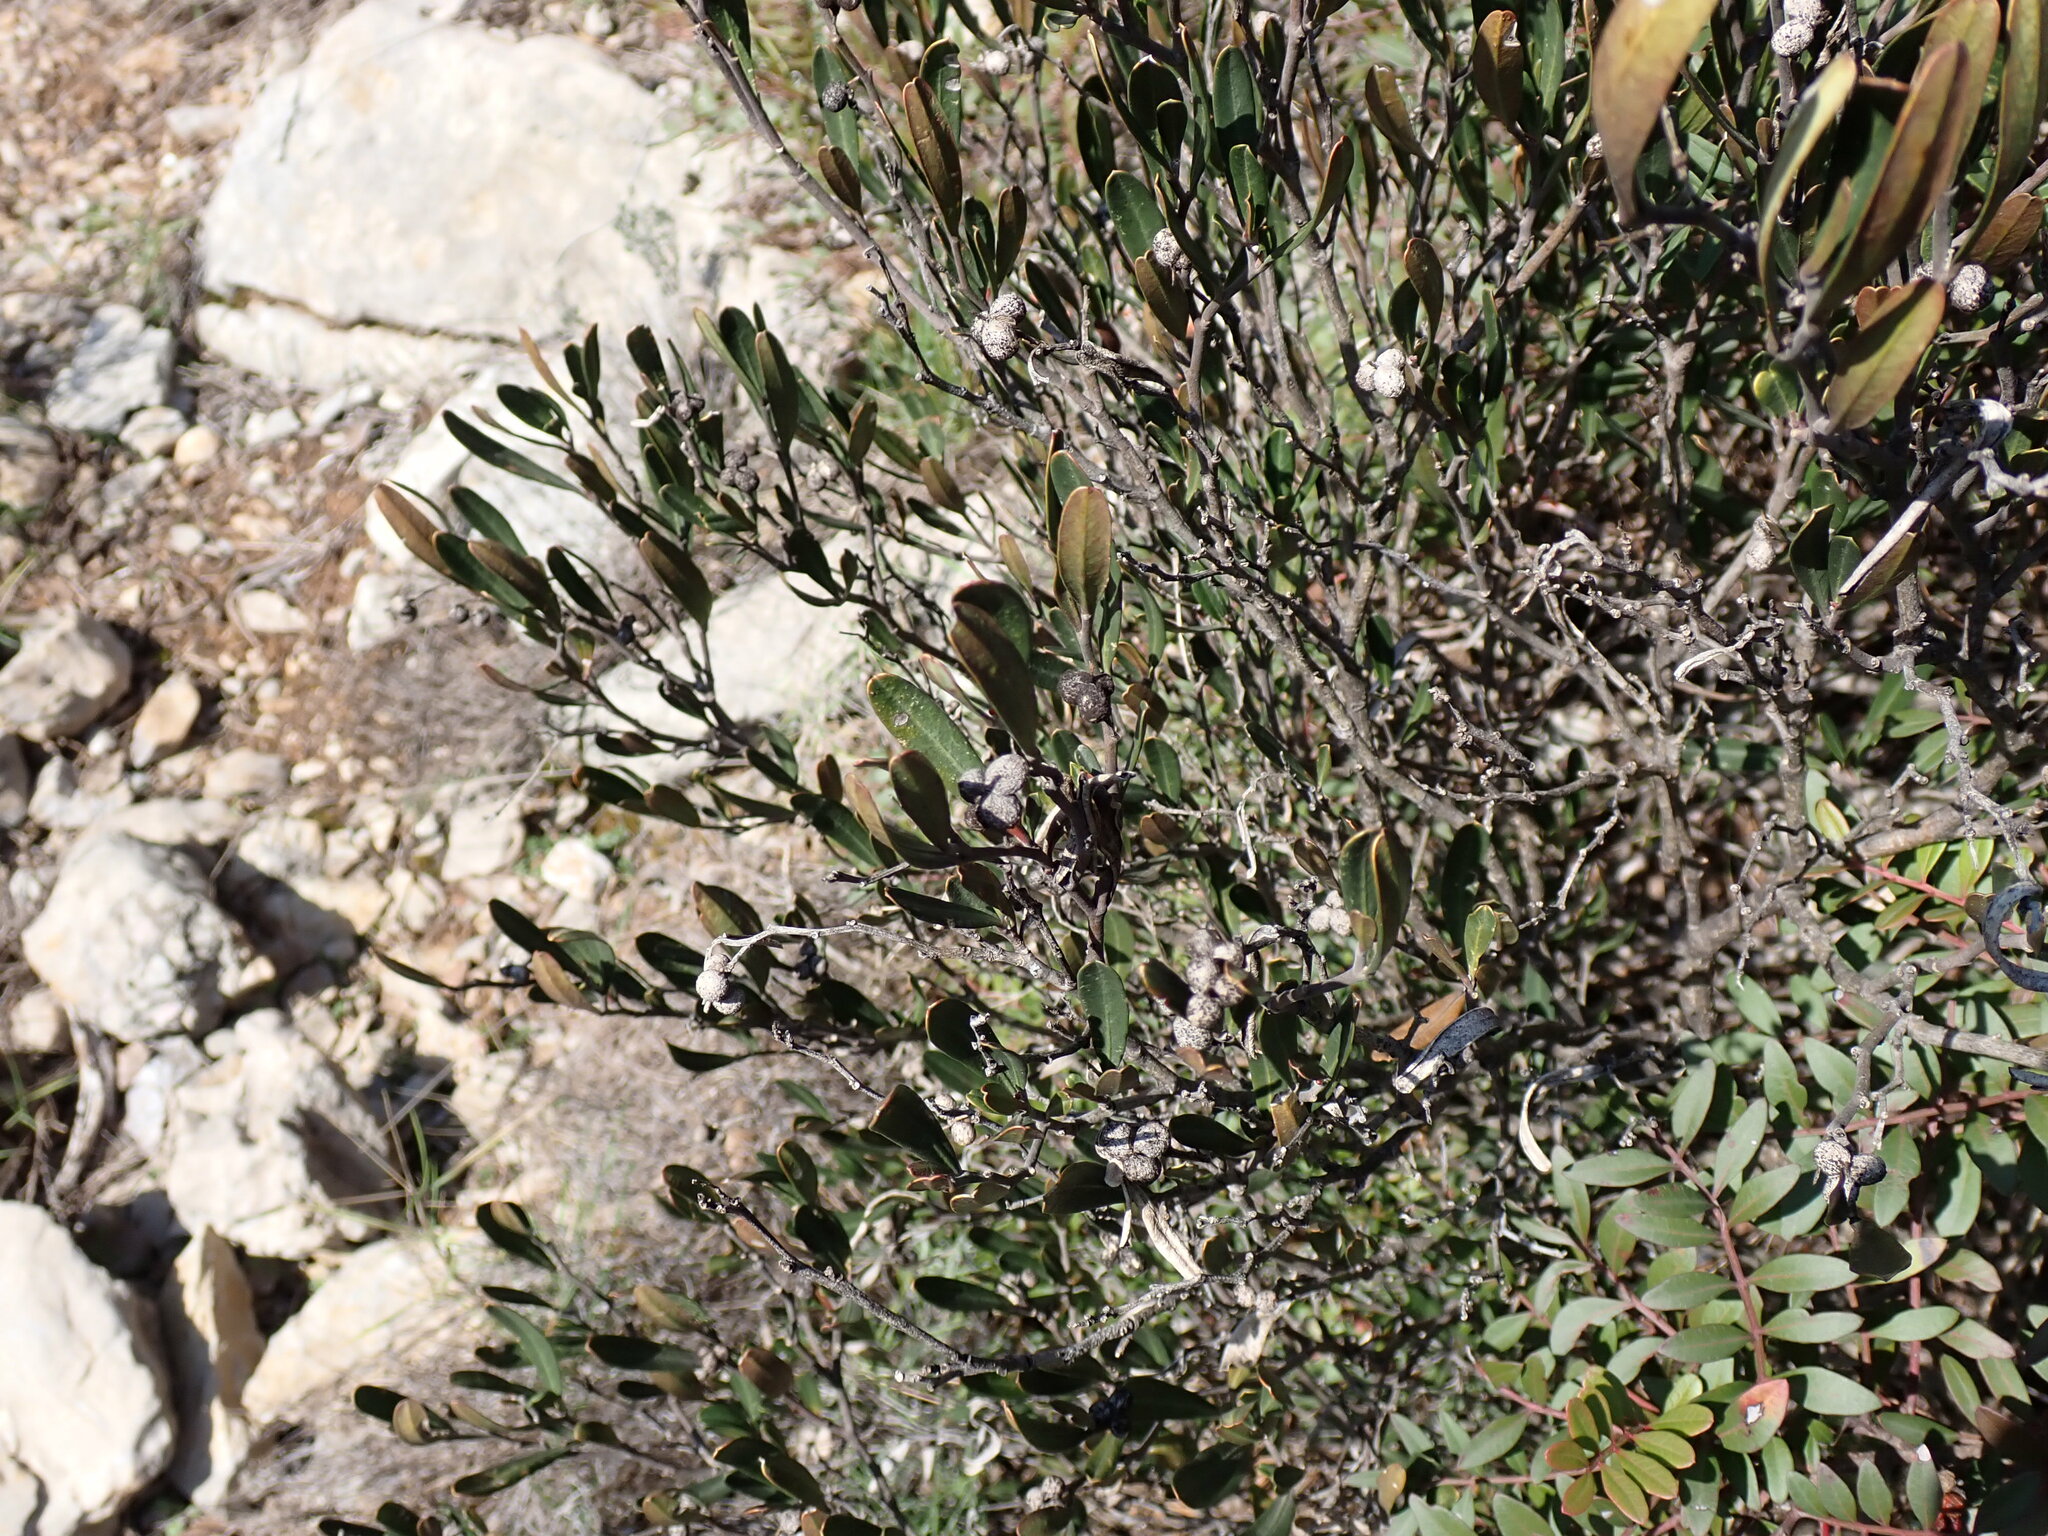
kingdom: Plantae
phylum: Tracheophyta
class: Magnoliopsida
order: Sapindales
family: Rutaceae
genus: Cneorum
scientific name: Cneorum tricoccon
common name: Spurge olive
